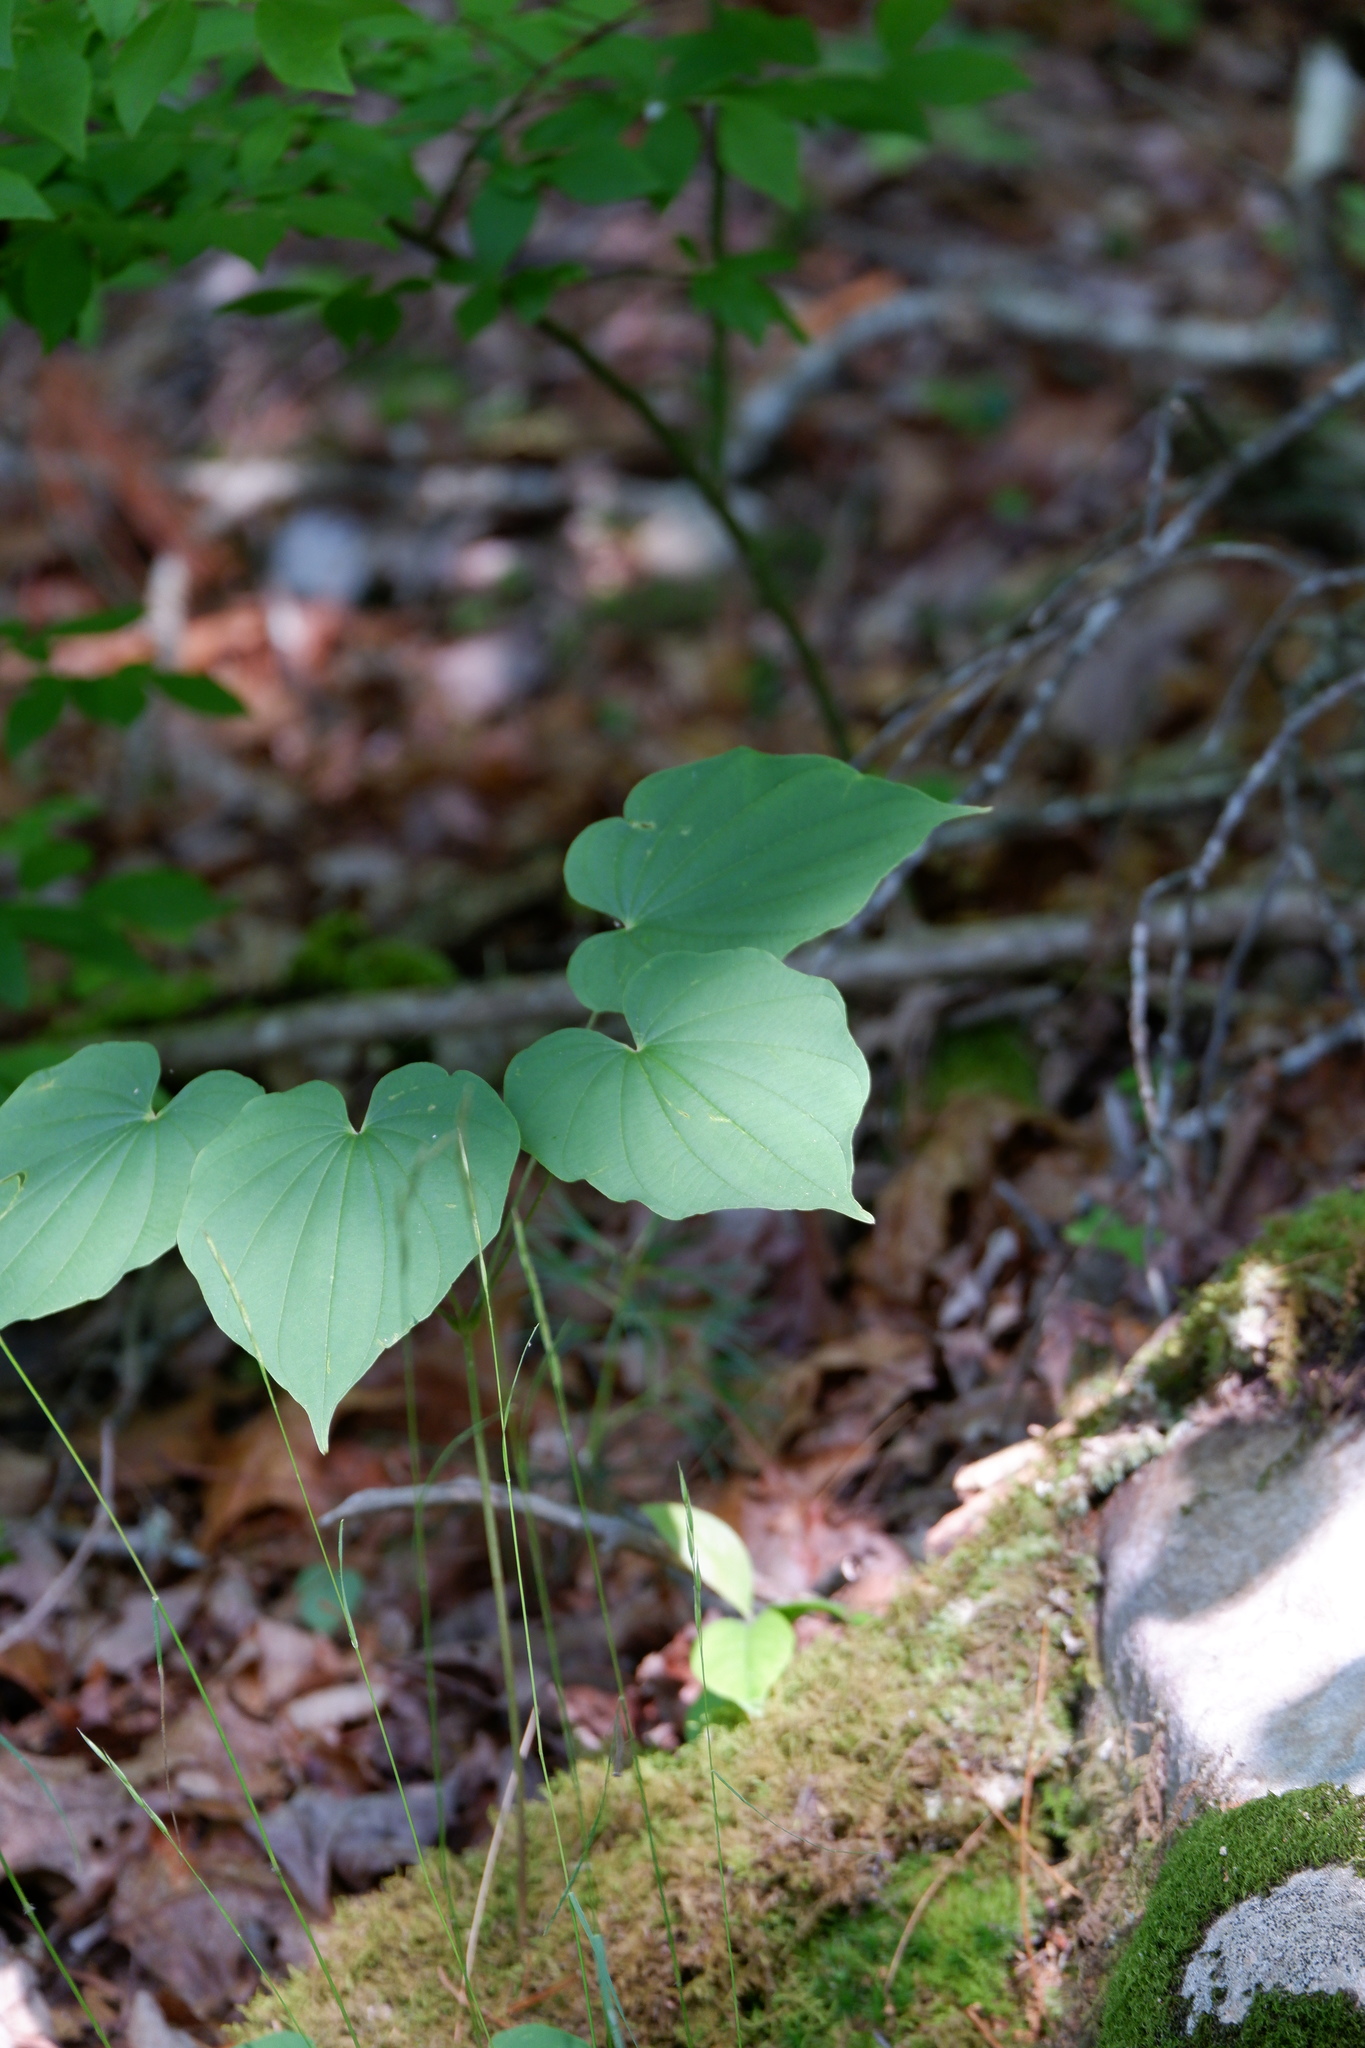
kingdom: Plantae
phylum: Tracheophyta
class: Liliopsida
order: Dioscoreales
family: Dioscoreaceae
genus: Dioscorea
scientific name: Dioscorea villosa
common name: Wild yam
